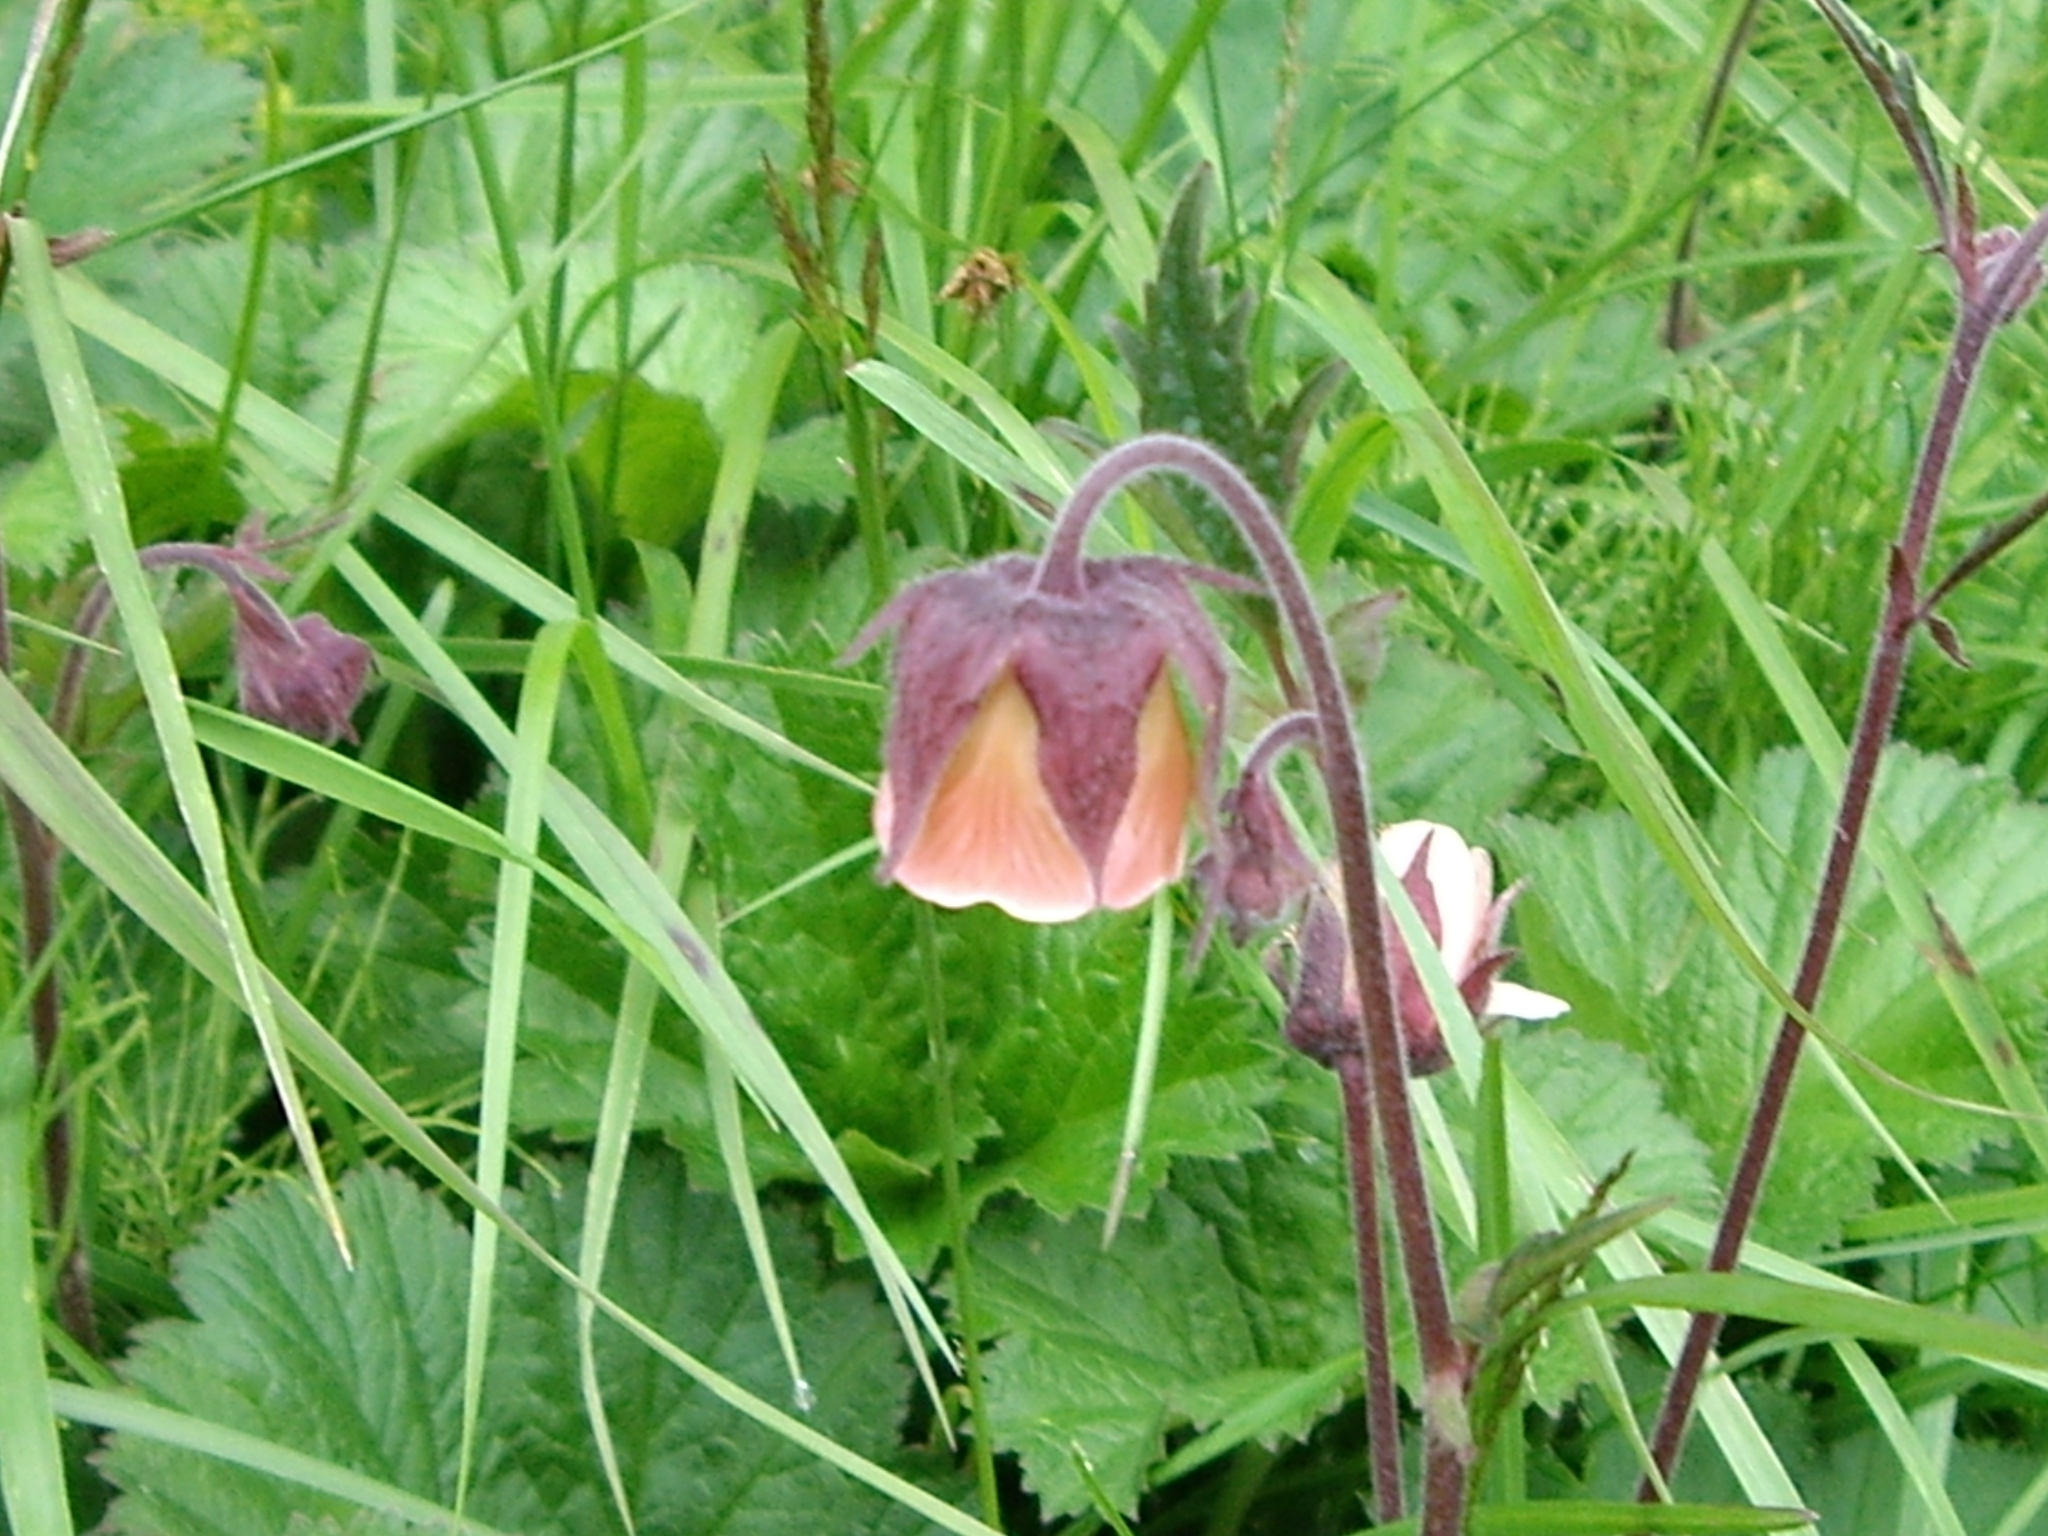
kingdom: Plantae
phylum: Tracheophyta
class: Magnoliopsida
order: Rosales
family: Rosaceae
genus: Geum
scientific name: Geum rivale
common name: Water avens
